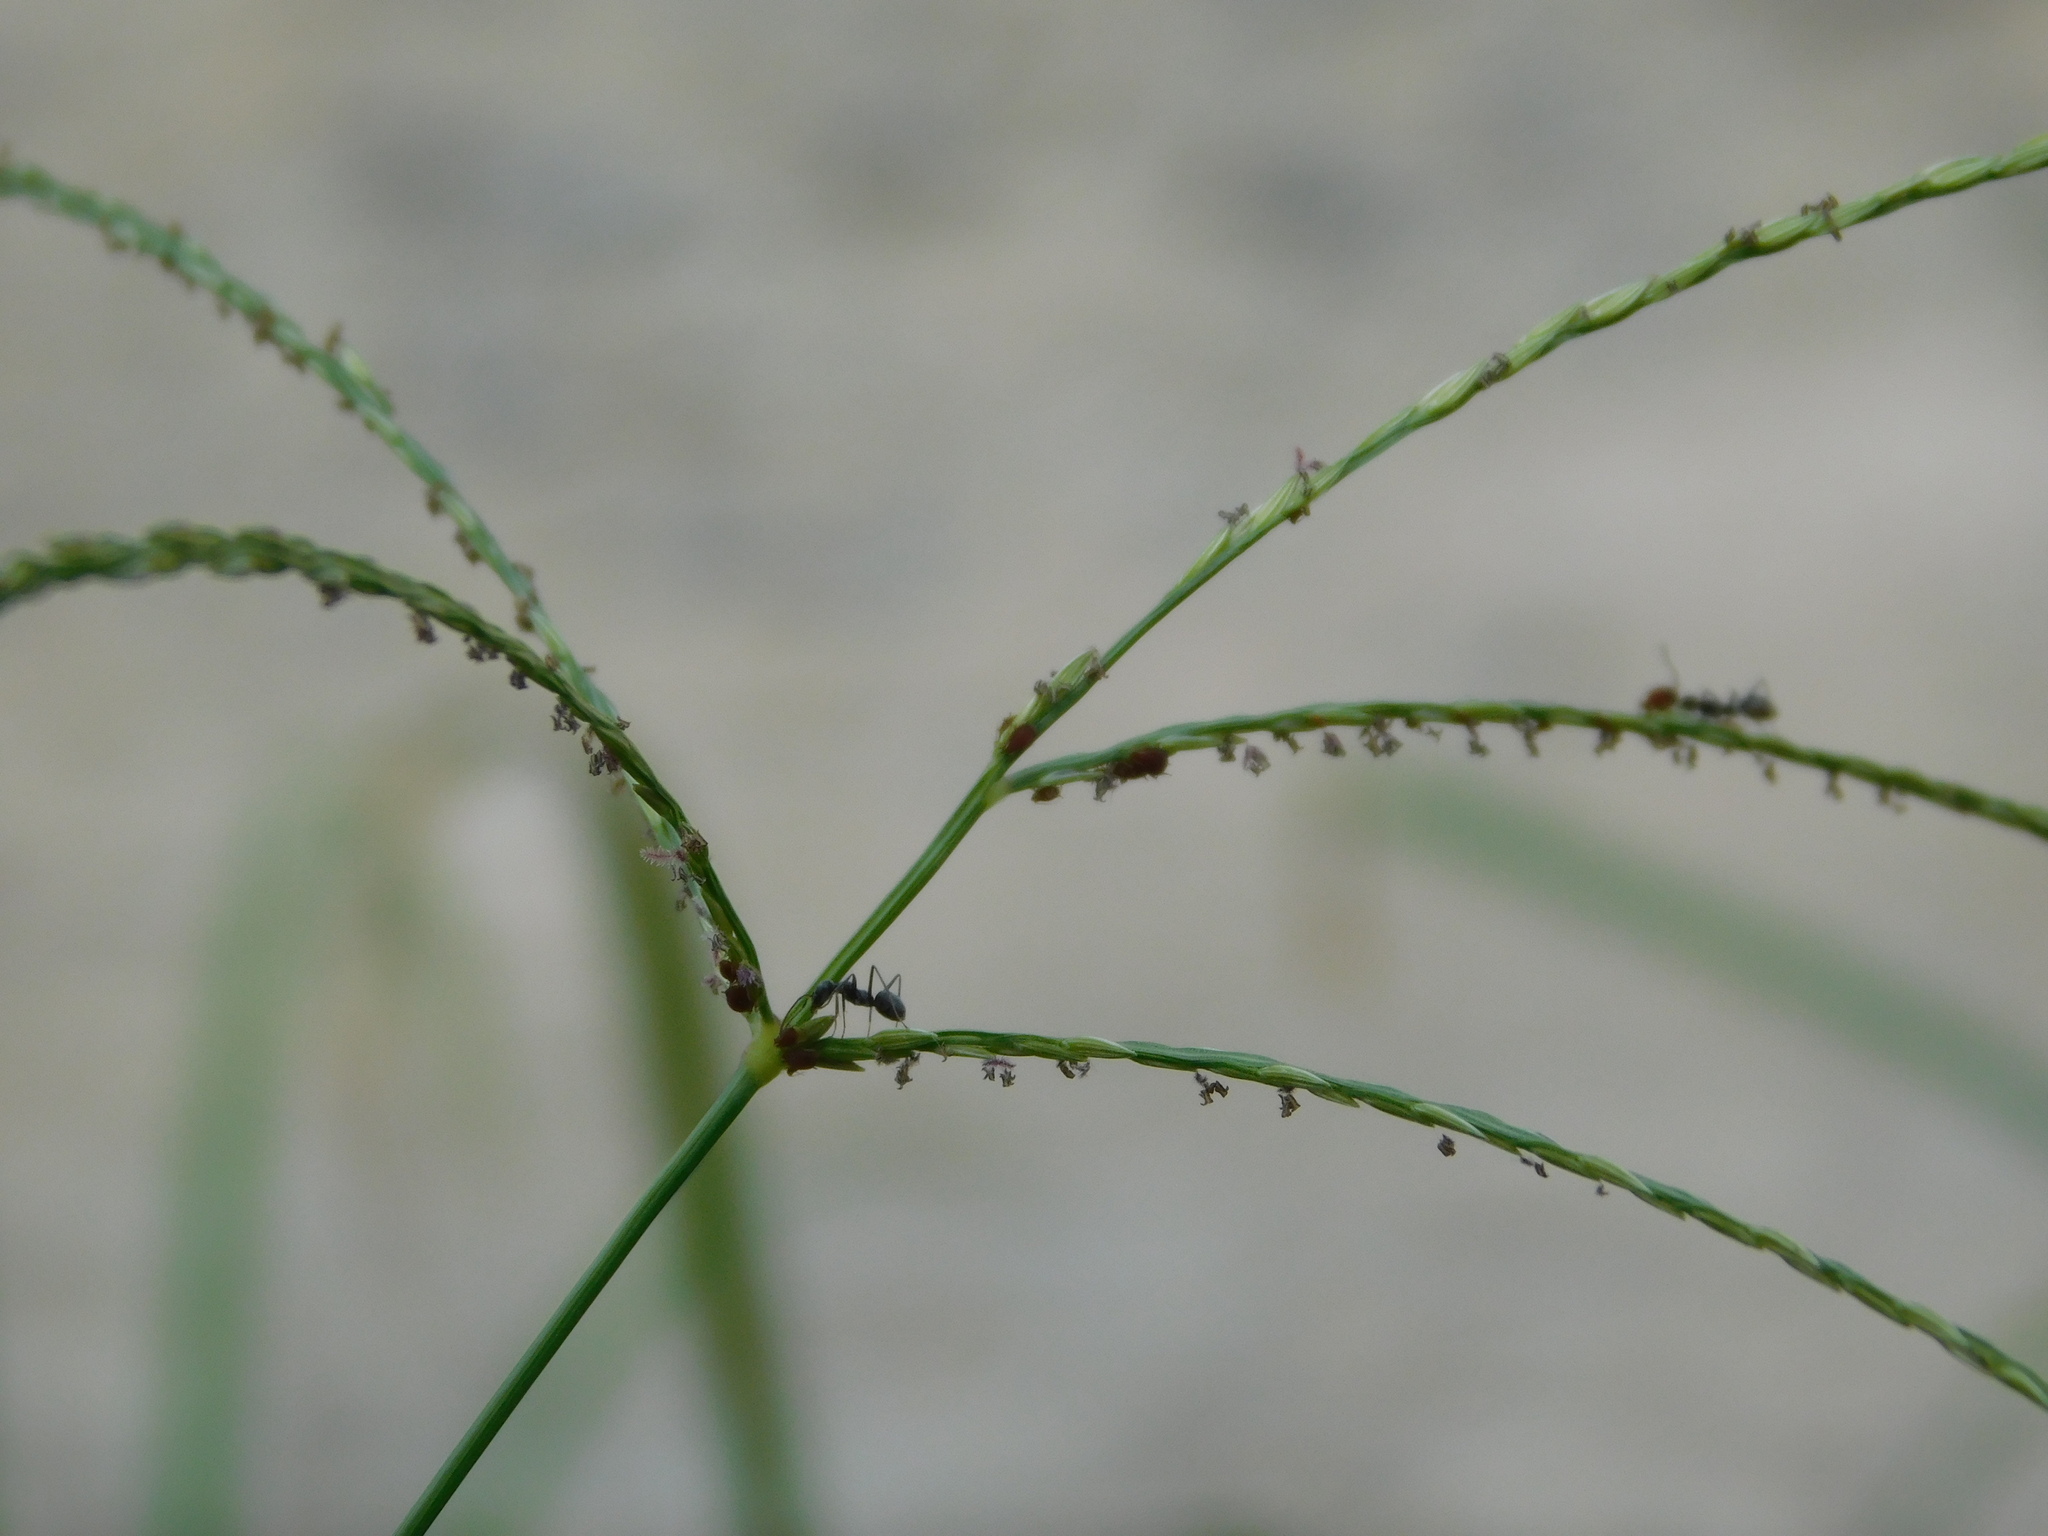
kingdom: Plantae
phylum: Tracheophyta
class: Liliopsida
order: Poales
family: Poaceae
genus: Digitaria
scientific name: Digitaria nuda
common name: Naked crabgrass
